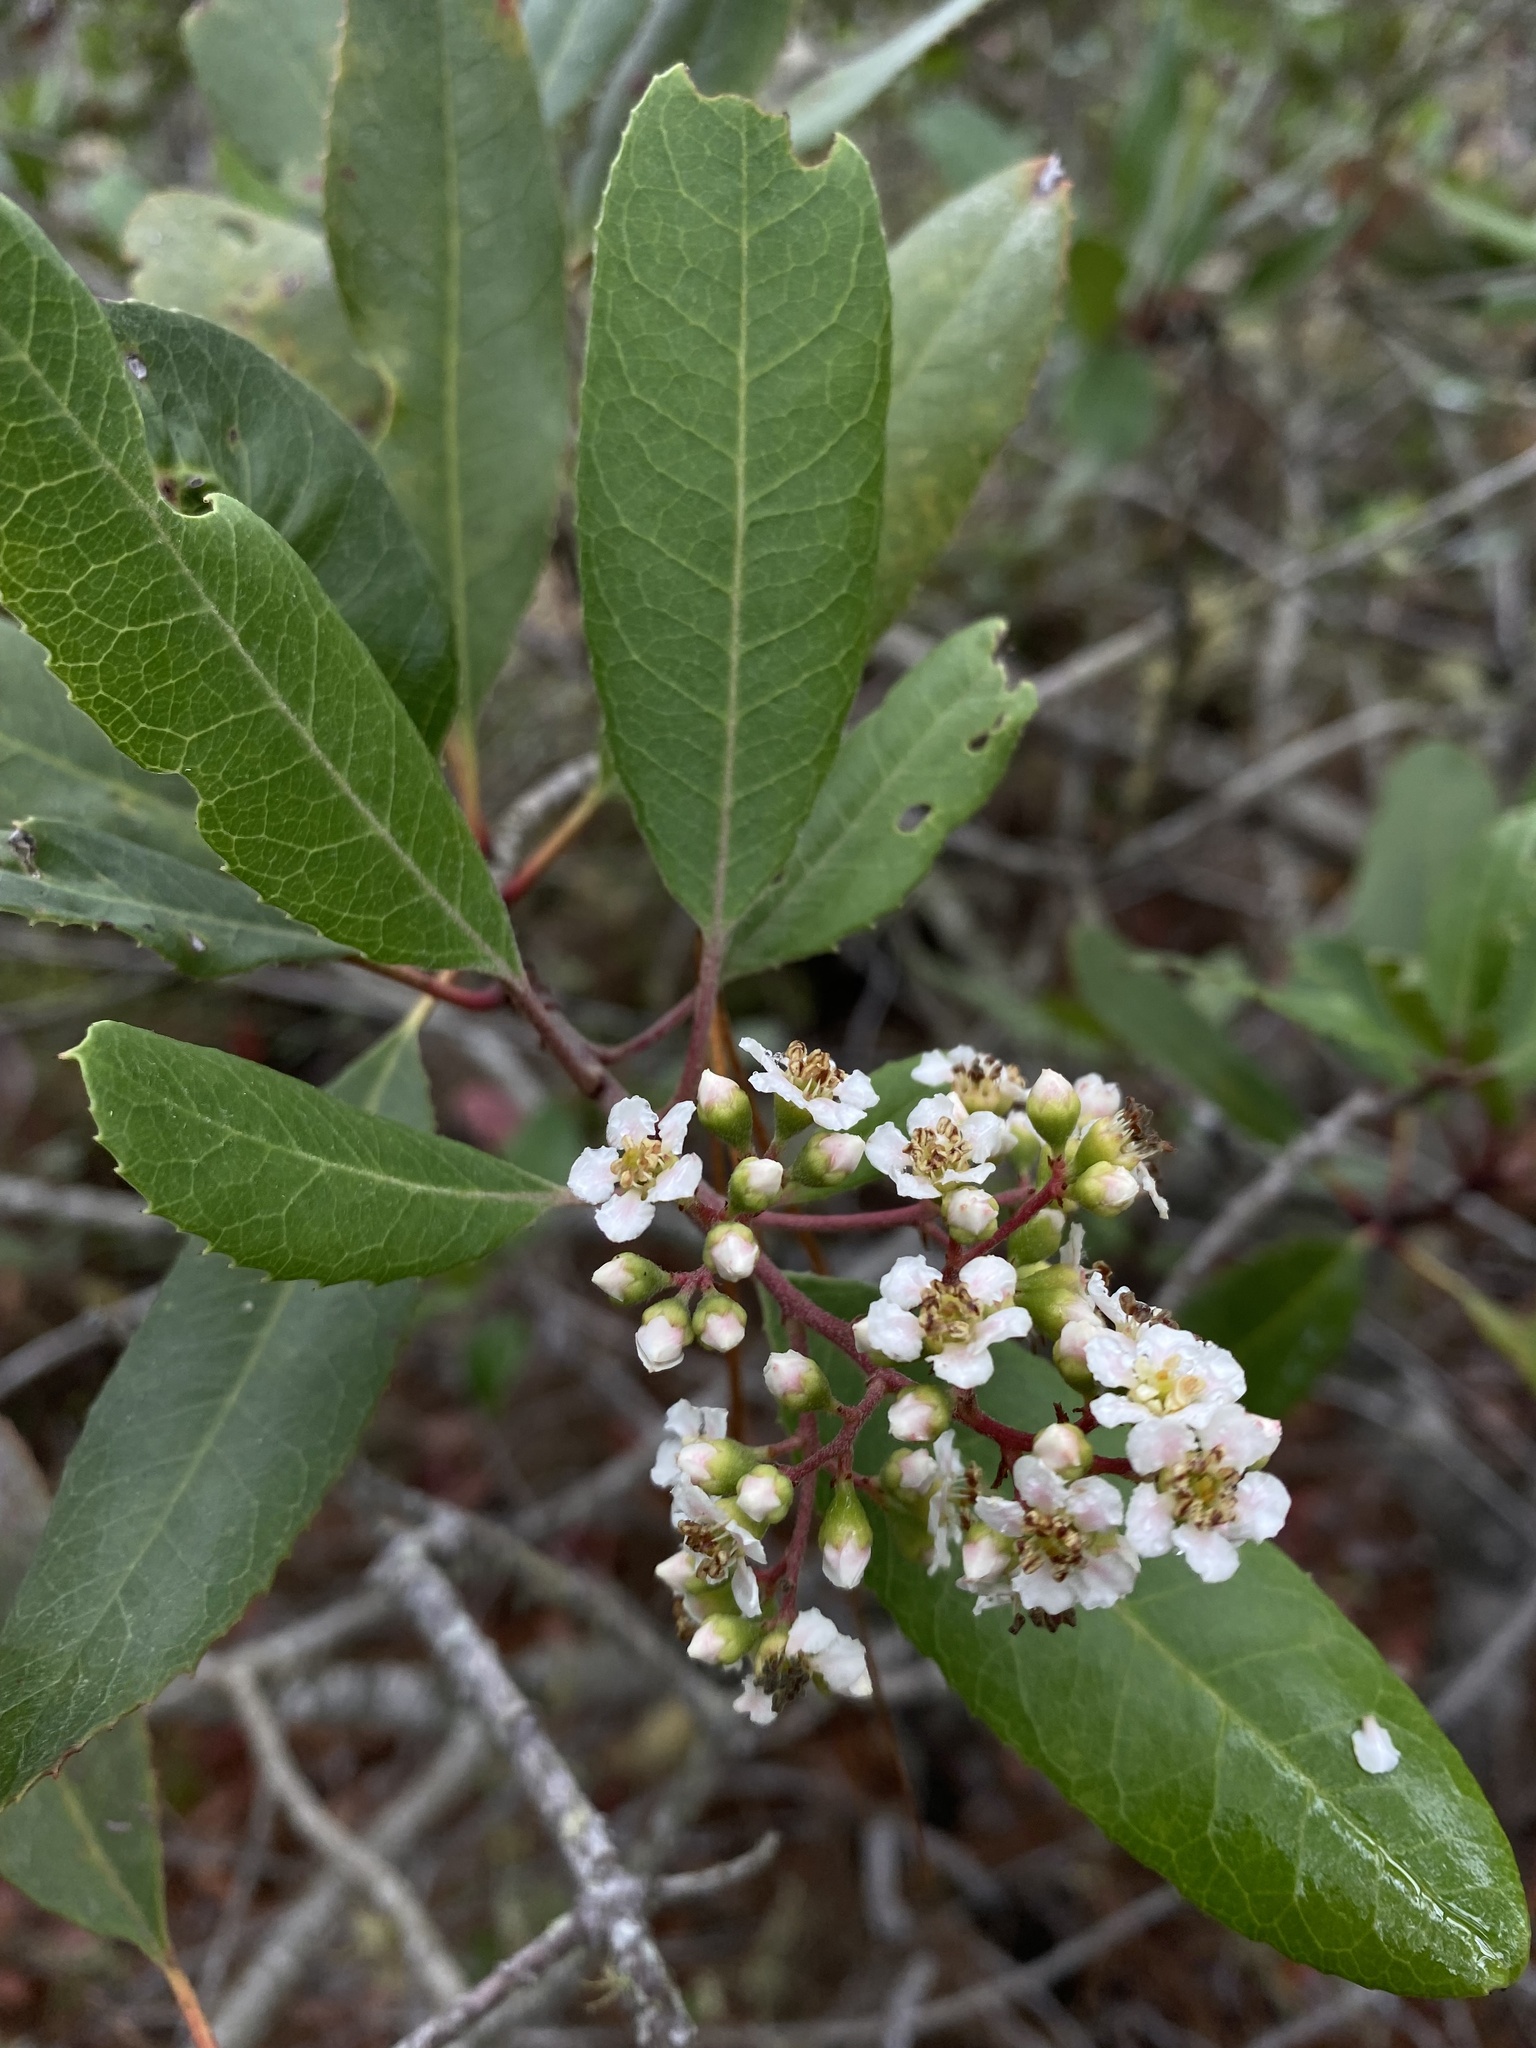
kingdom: Plantae
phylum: Tracheophyta
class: Magnoliopsida
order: Rosales
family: Rosaceae
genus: Heteromeles
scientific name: Heteromeles arbutifolia
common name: California-holly
